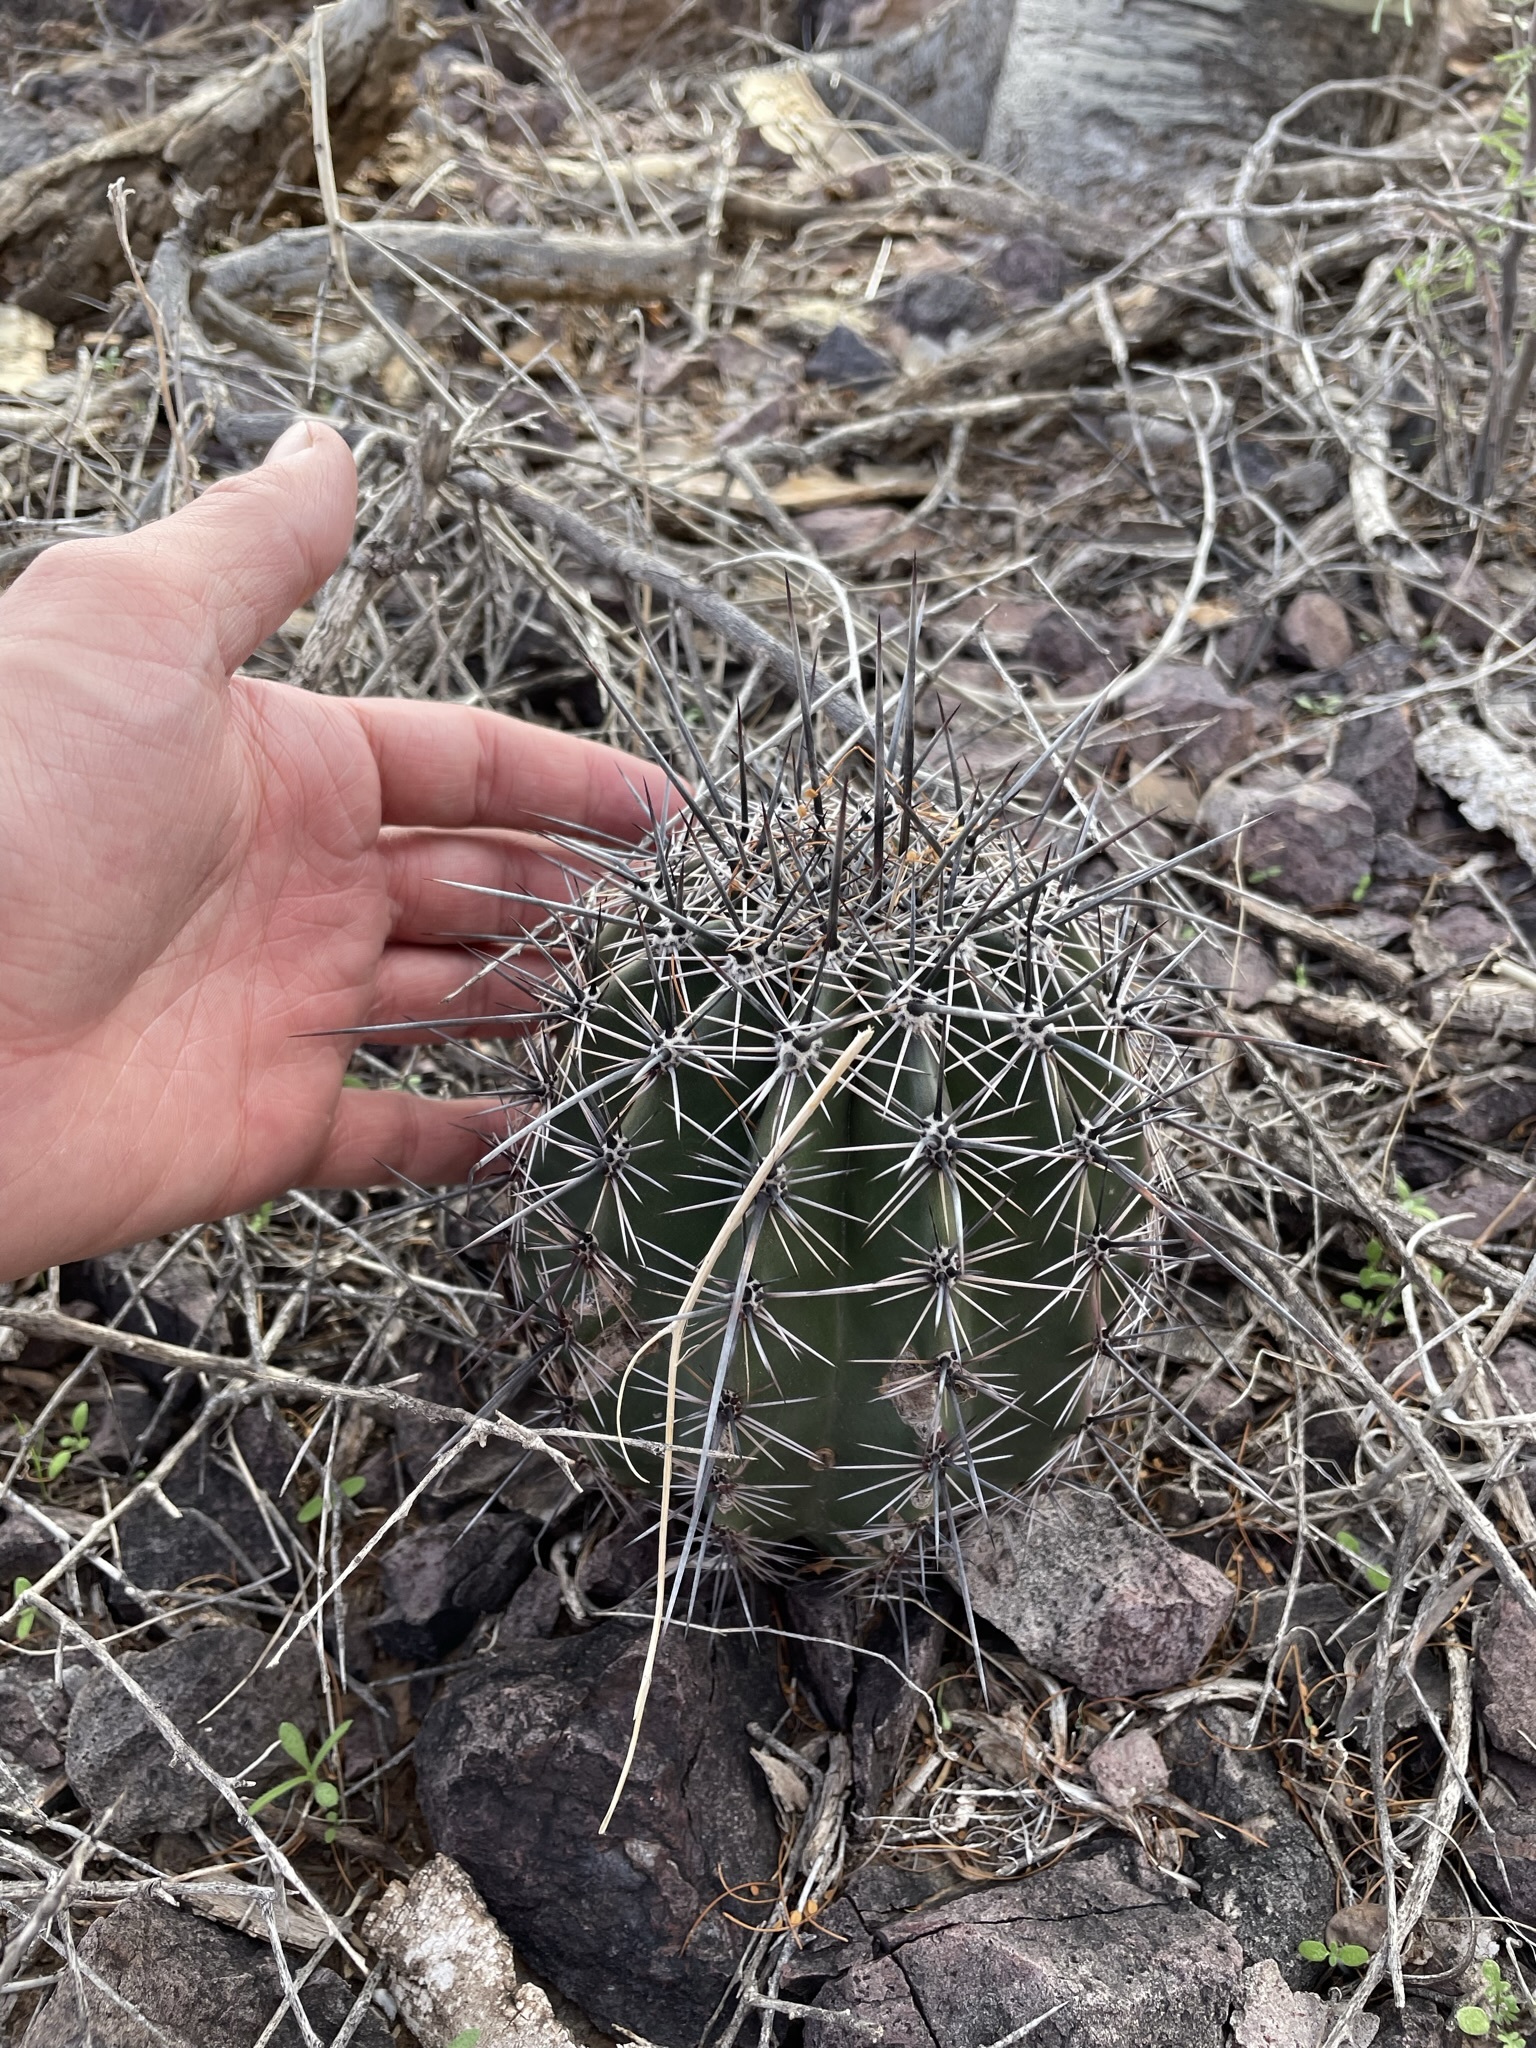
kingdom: Plantae
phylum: Tracheophyta
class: Magnoliopsida
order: Caryophyllales
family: Cactaceae
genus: Carnegiea
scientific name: Carnegiea gigantea
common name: Saguaro
